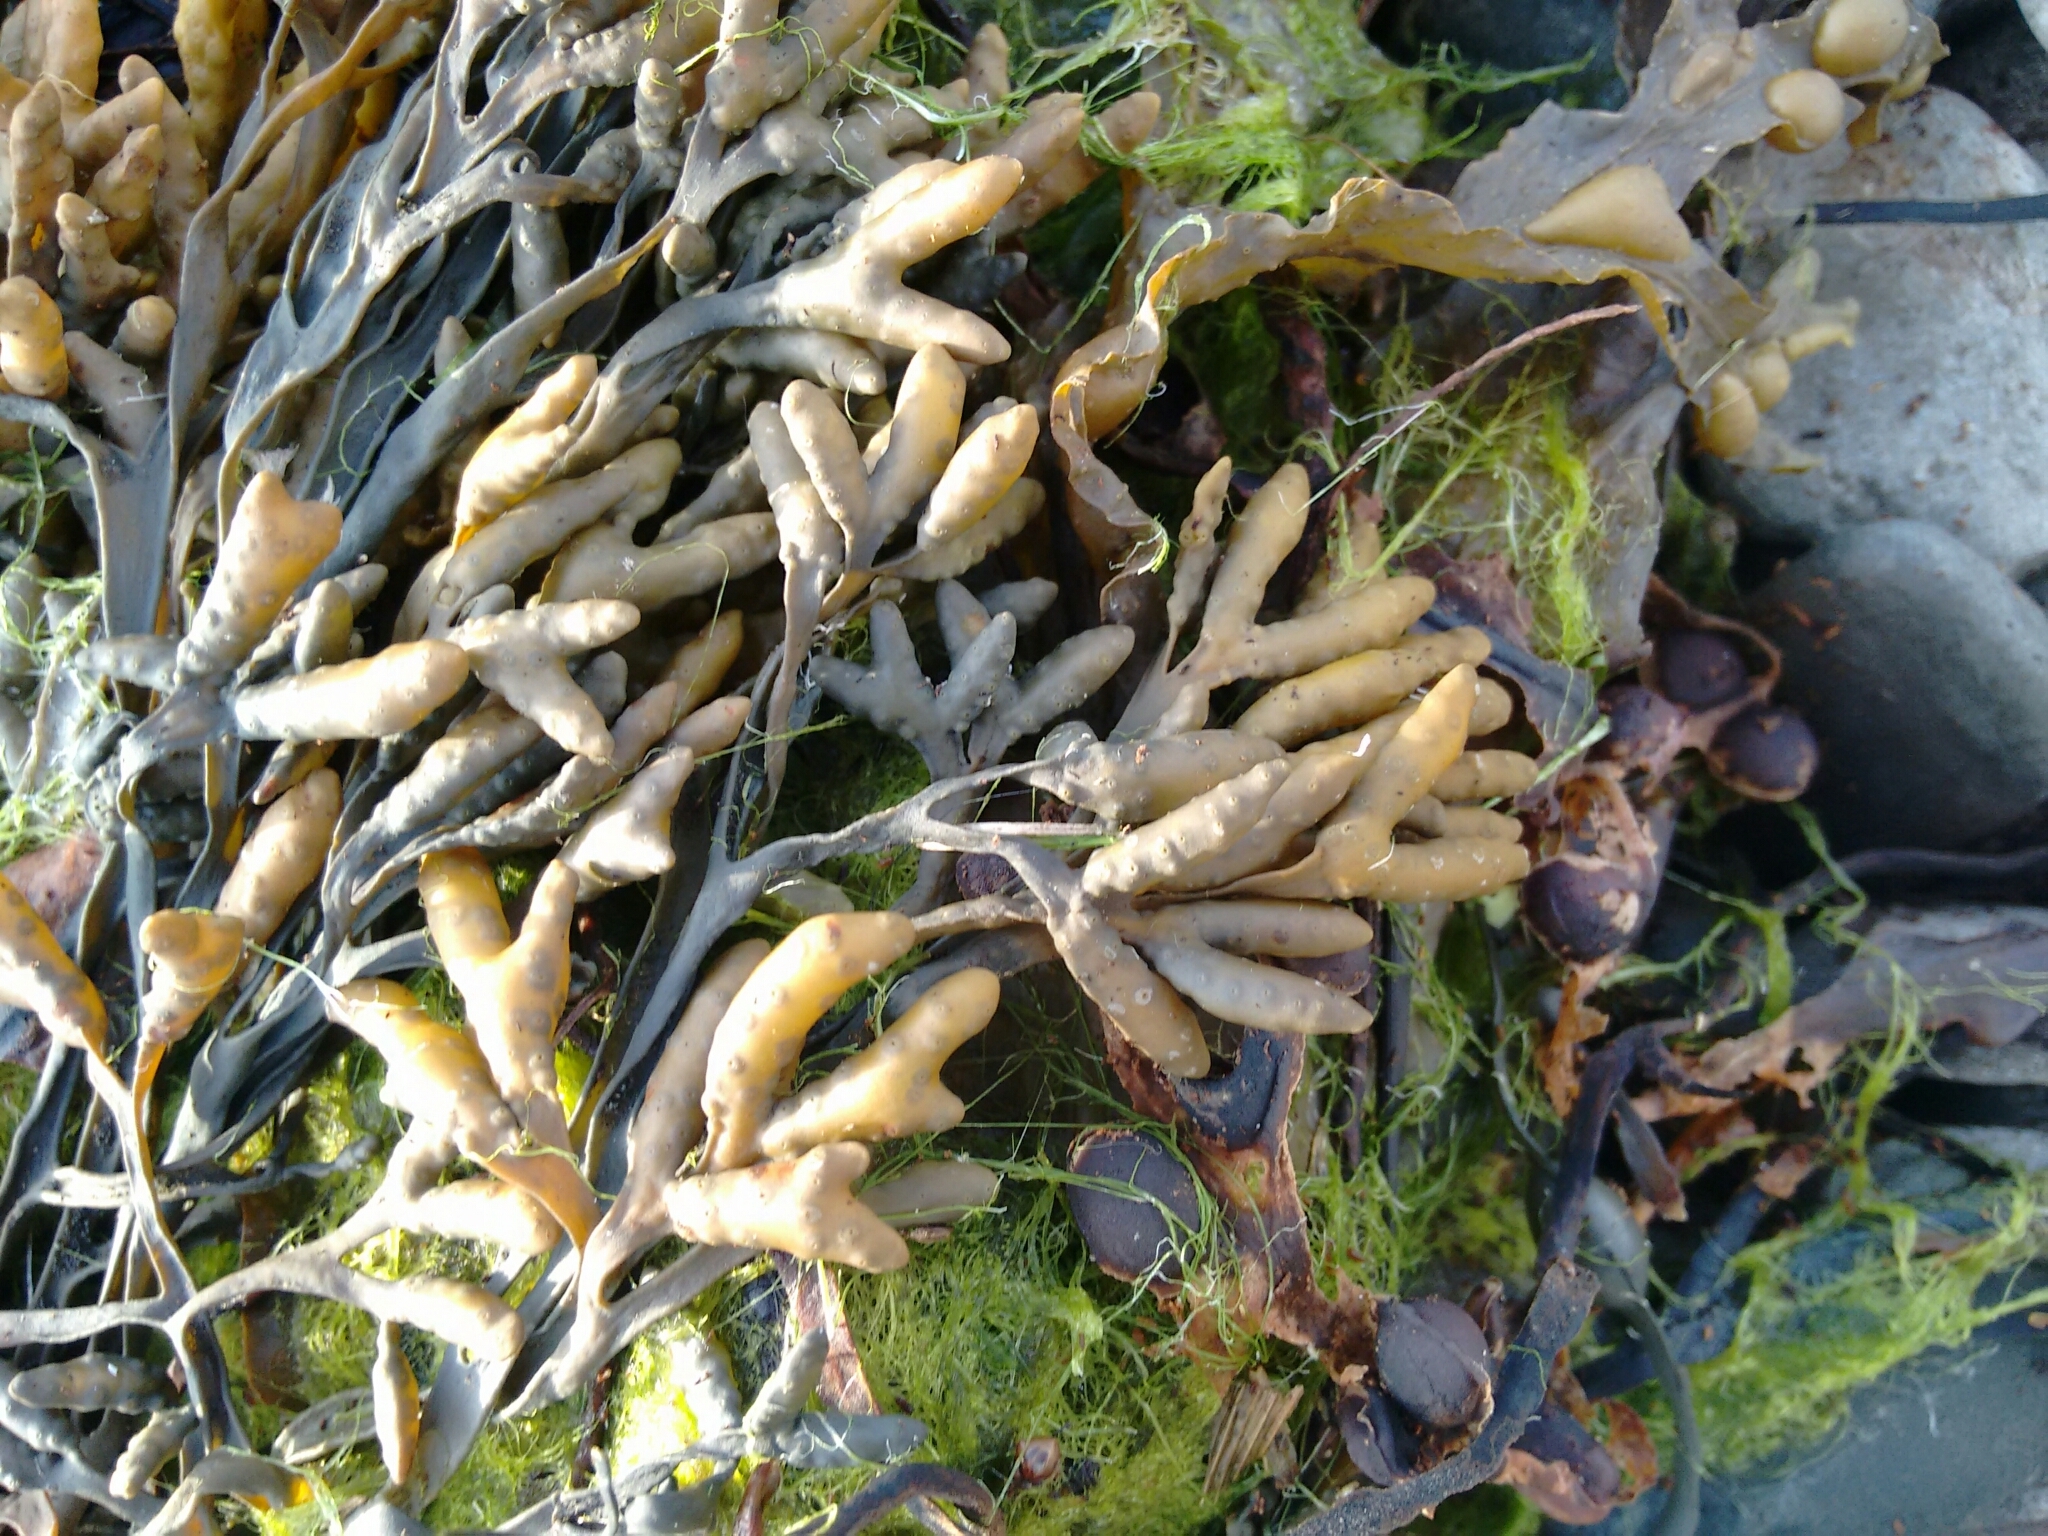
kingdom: Chromista
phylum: Ochrophyta
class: Phaeophyceae
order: Fucales
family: Fucaceae
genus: Pelvetia
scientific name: Pelvetia canaliculata
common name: Channelled wrack
